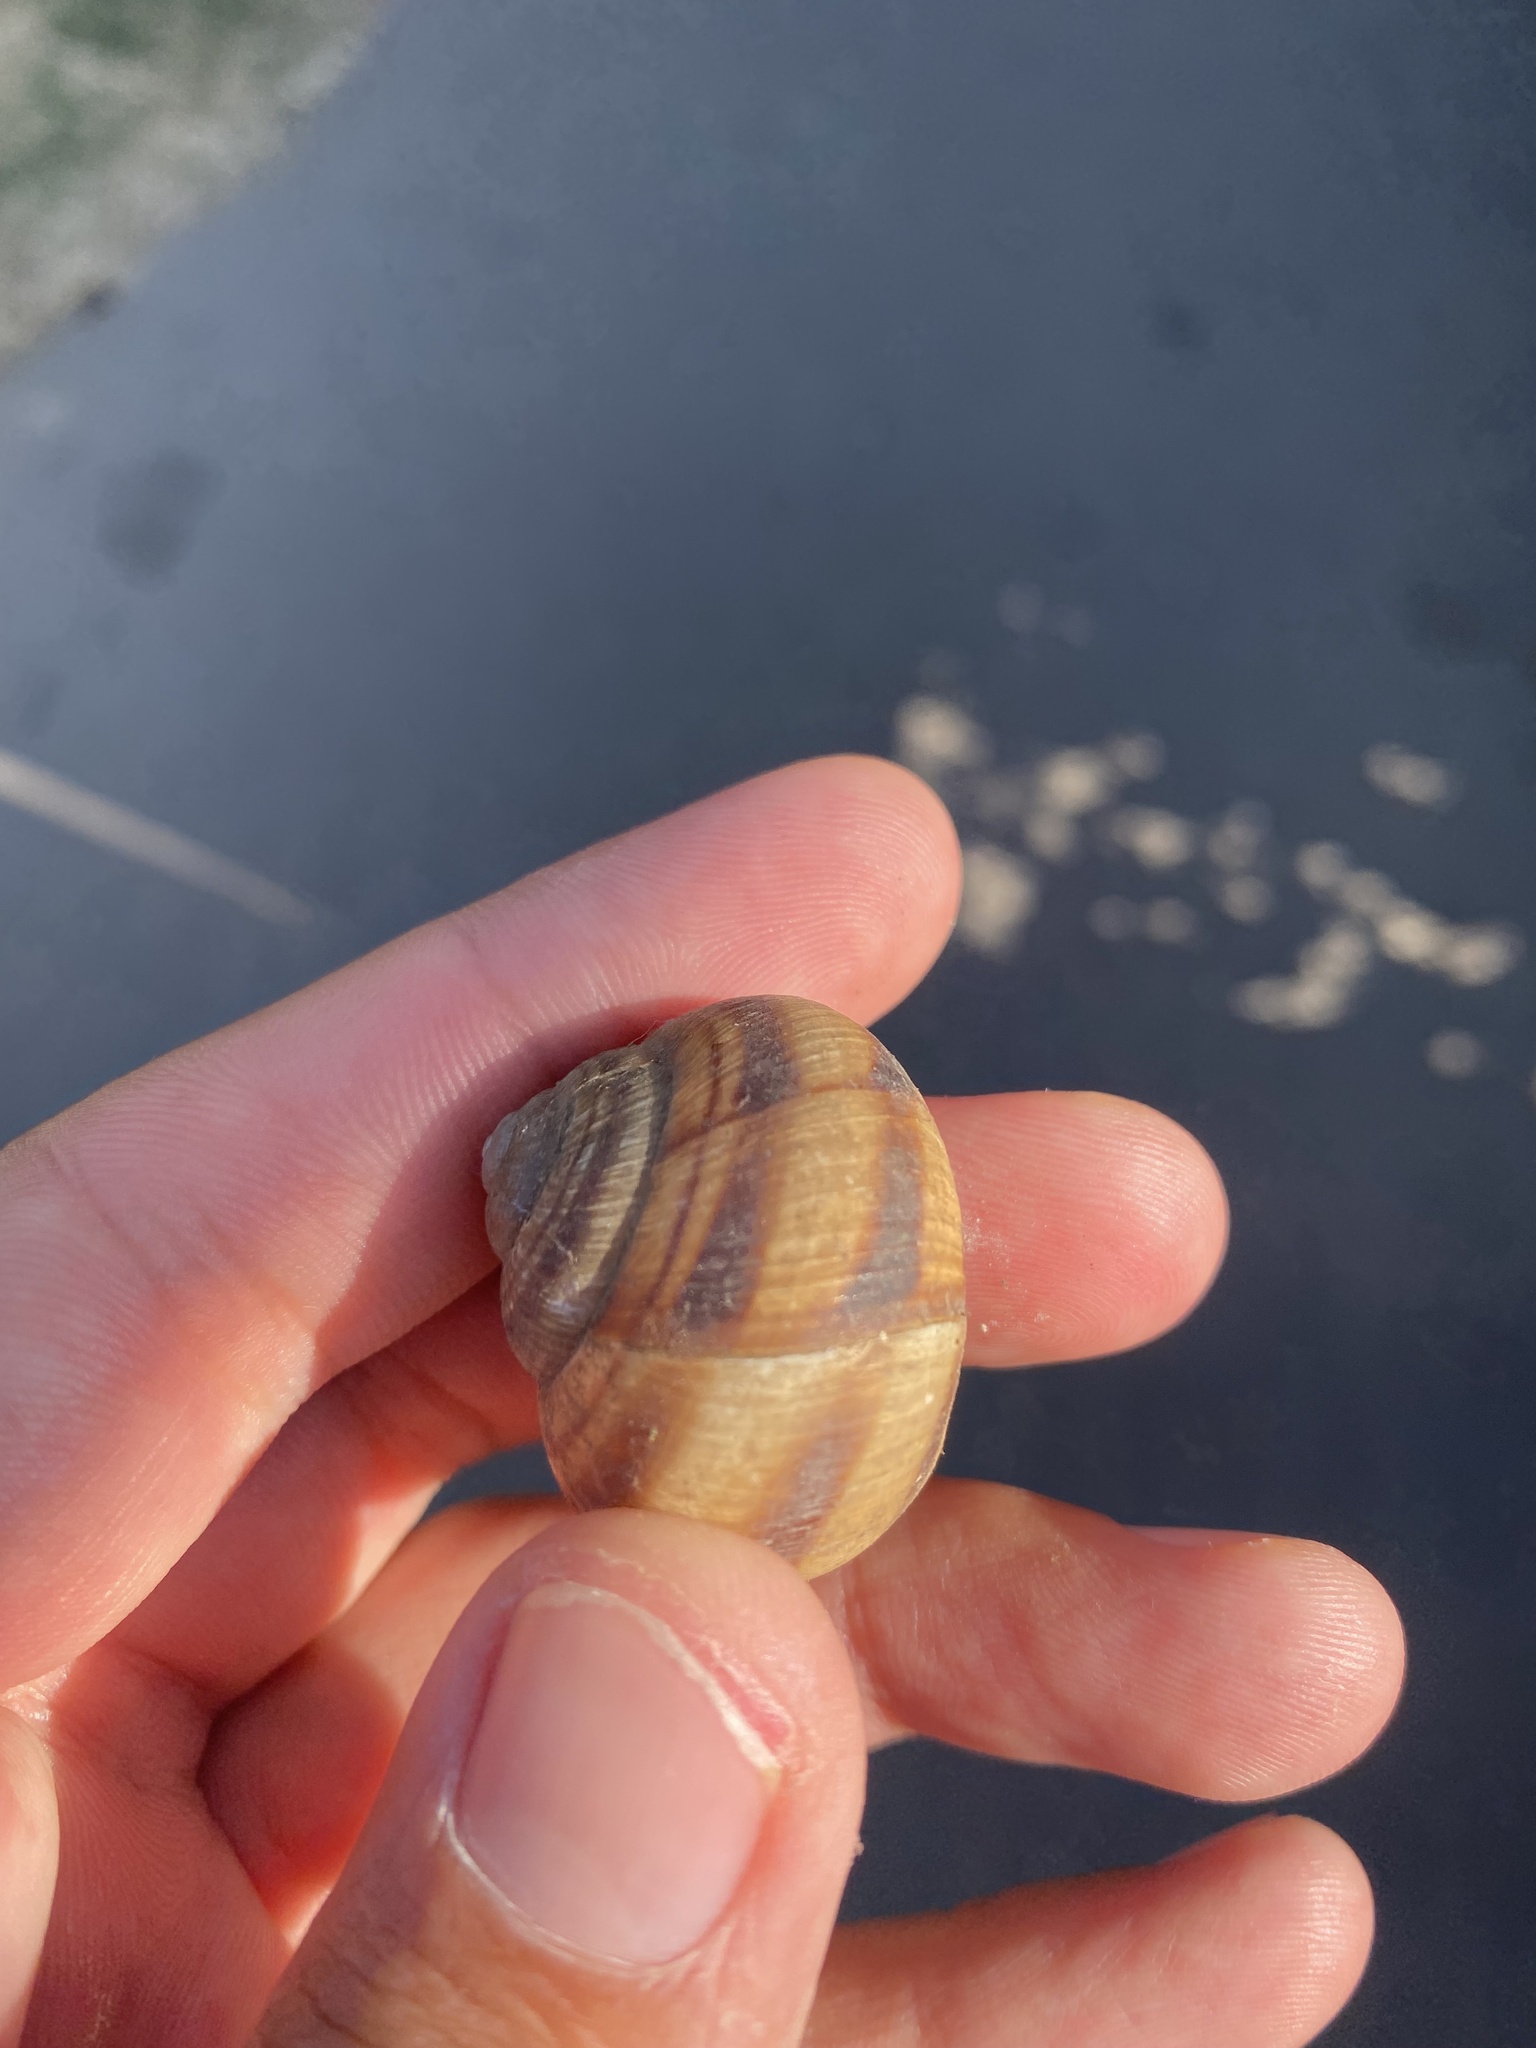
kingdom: Animalia
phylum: Mollusca
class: Gastropoda
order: Stylommatophora
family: Helicidae
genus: Helix
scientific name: Helix lucorum
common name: Turkish snail
